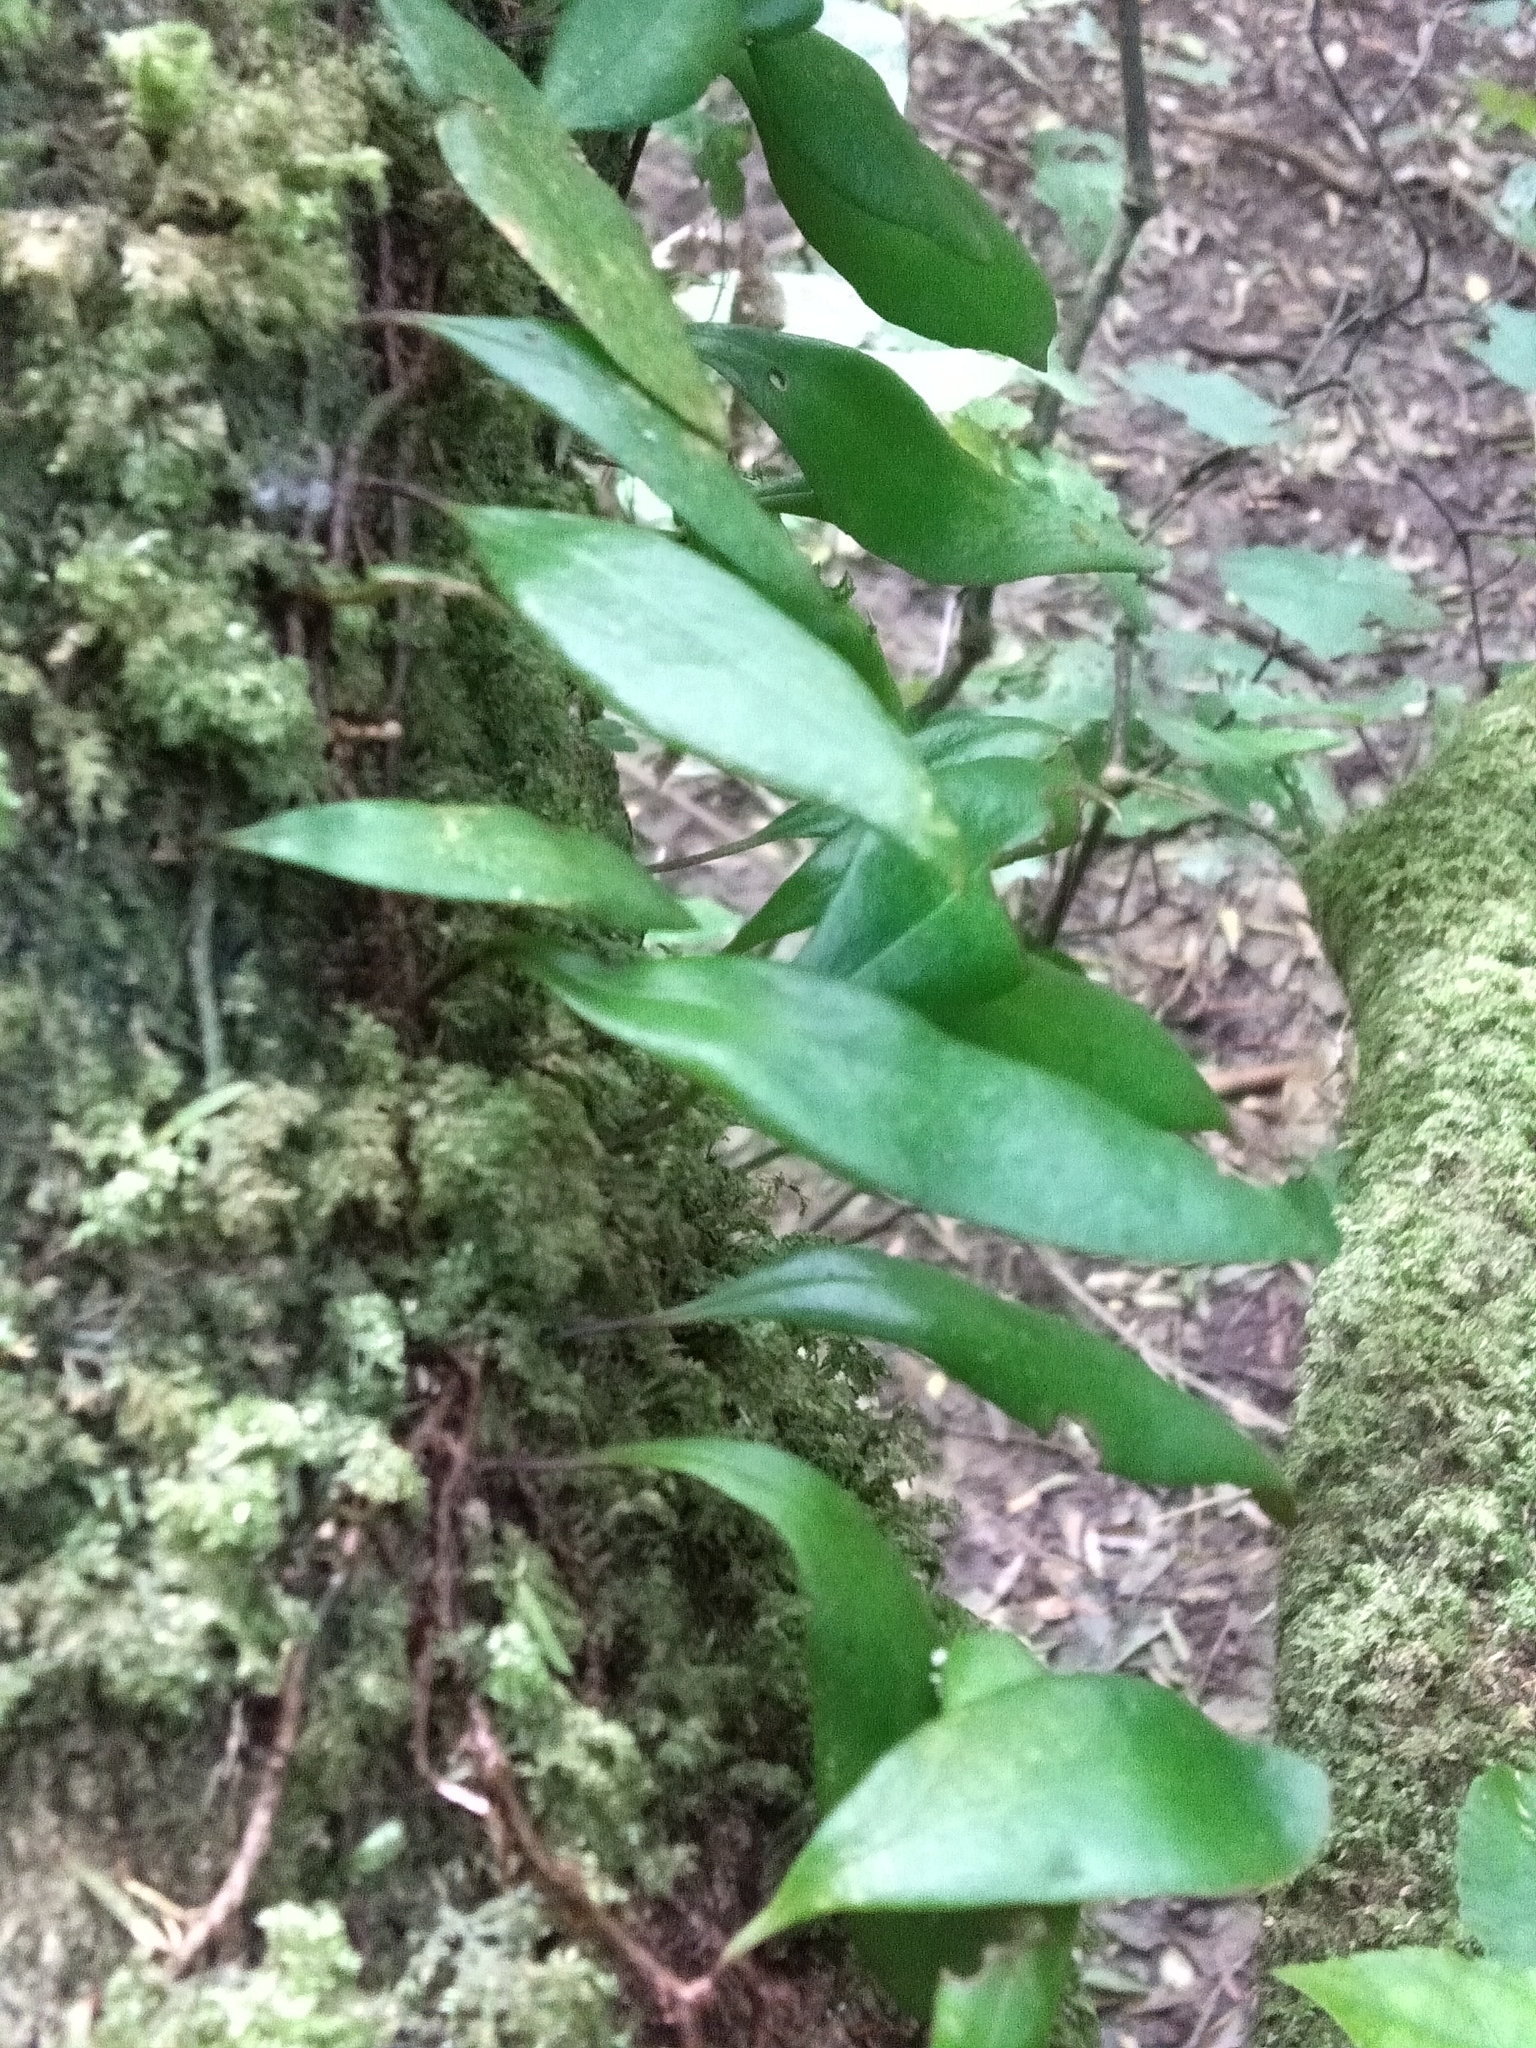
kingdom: Plantae
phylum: Tracheophyta
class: Polypodiopsida
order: Polypodiales
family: Polypodiaceae
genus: Pyrrosia
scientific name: Pyrrosia eleagnifolia
